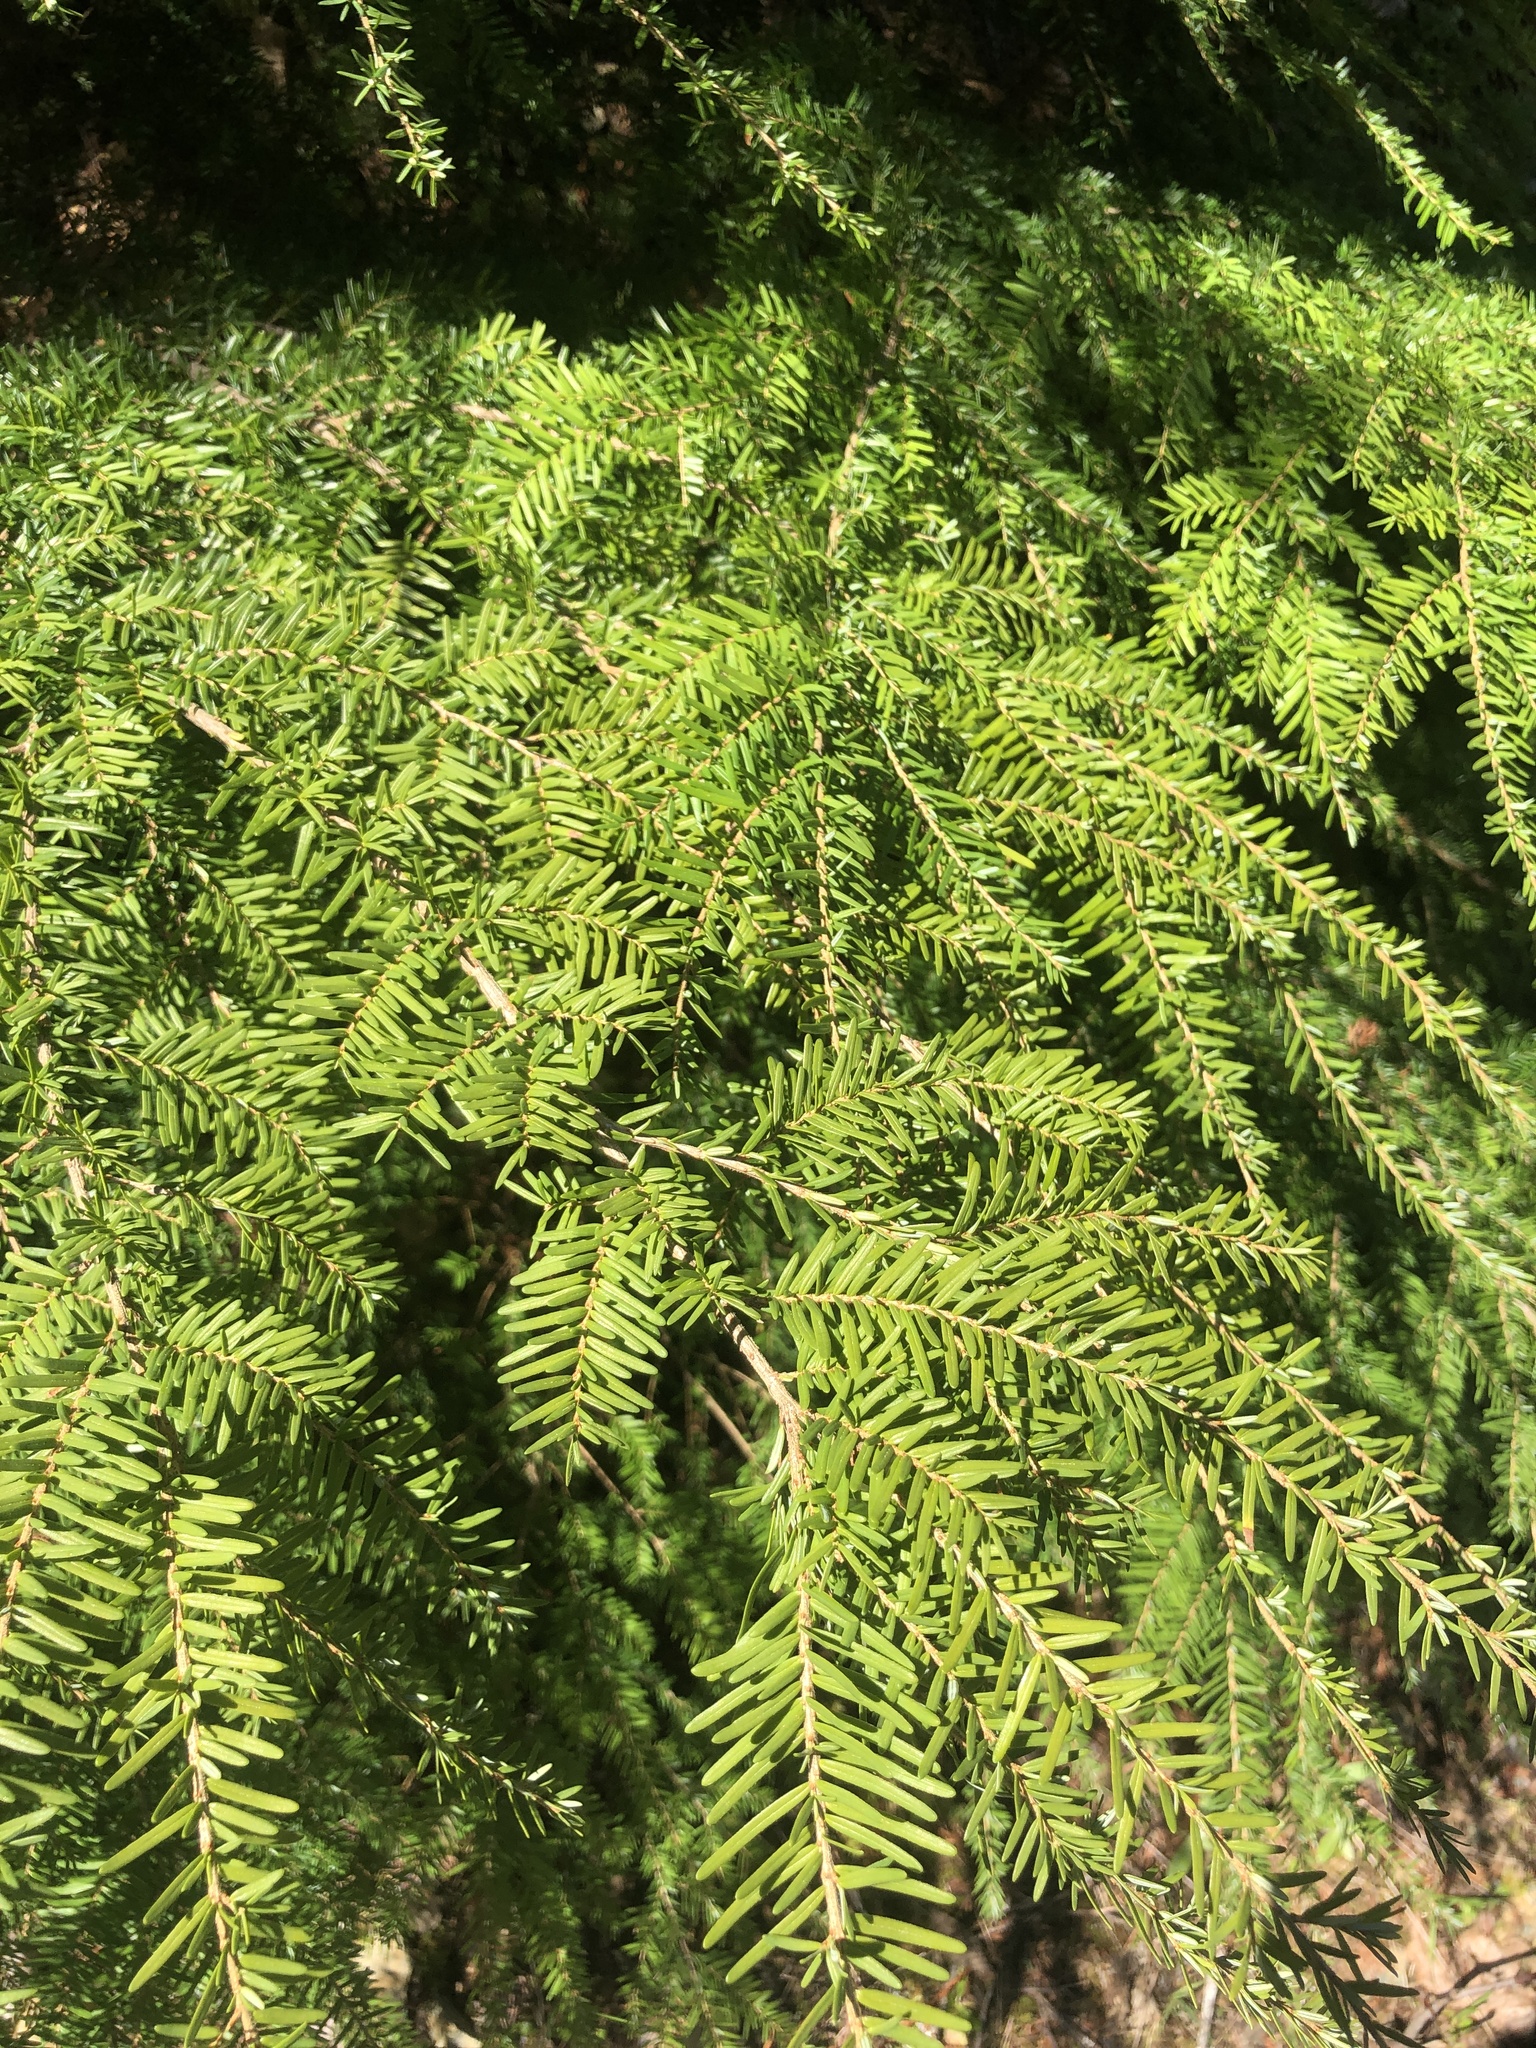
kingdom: Plantae
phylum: Tracheophyta
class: Pinopsida
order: Pinales
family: Pinaceae
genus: Tsuga
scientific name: Tsuga heterophylla
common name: Western hemlock
